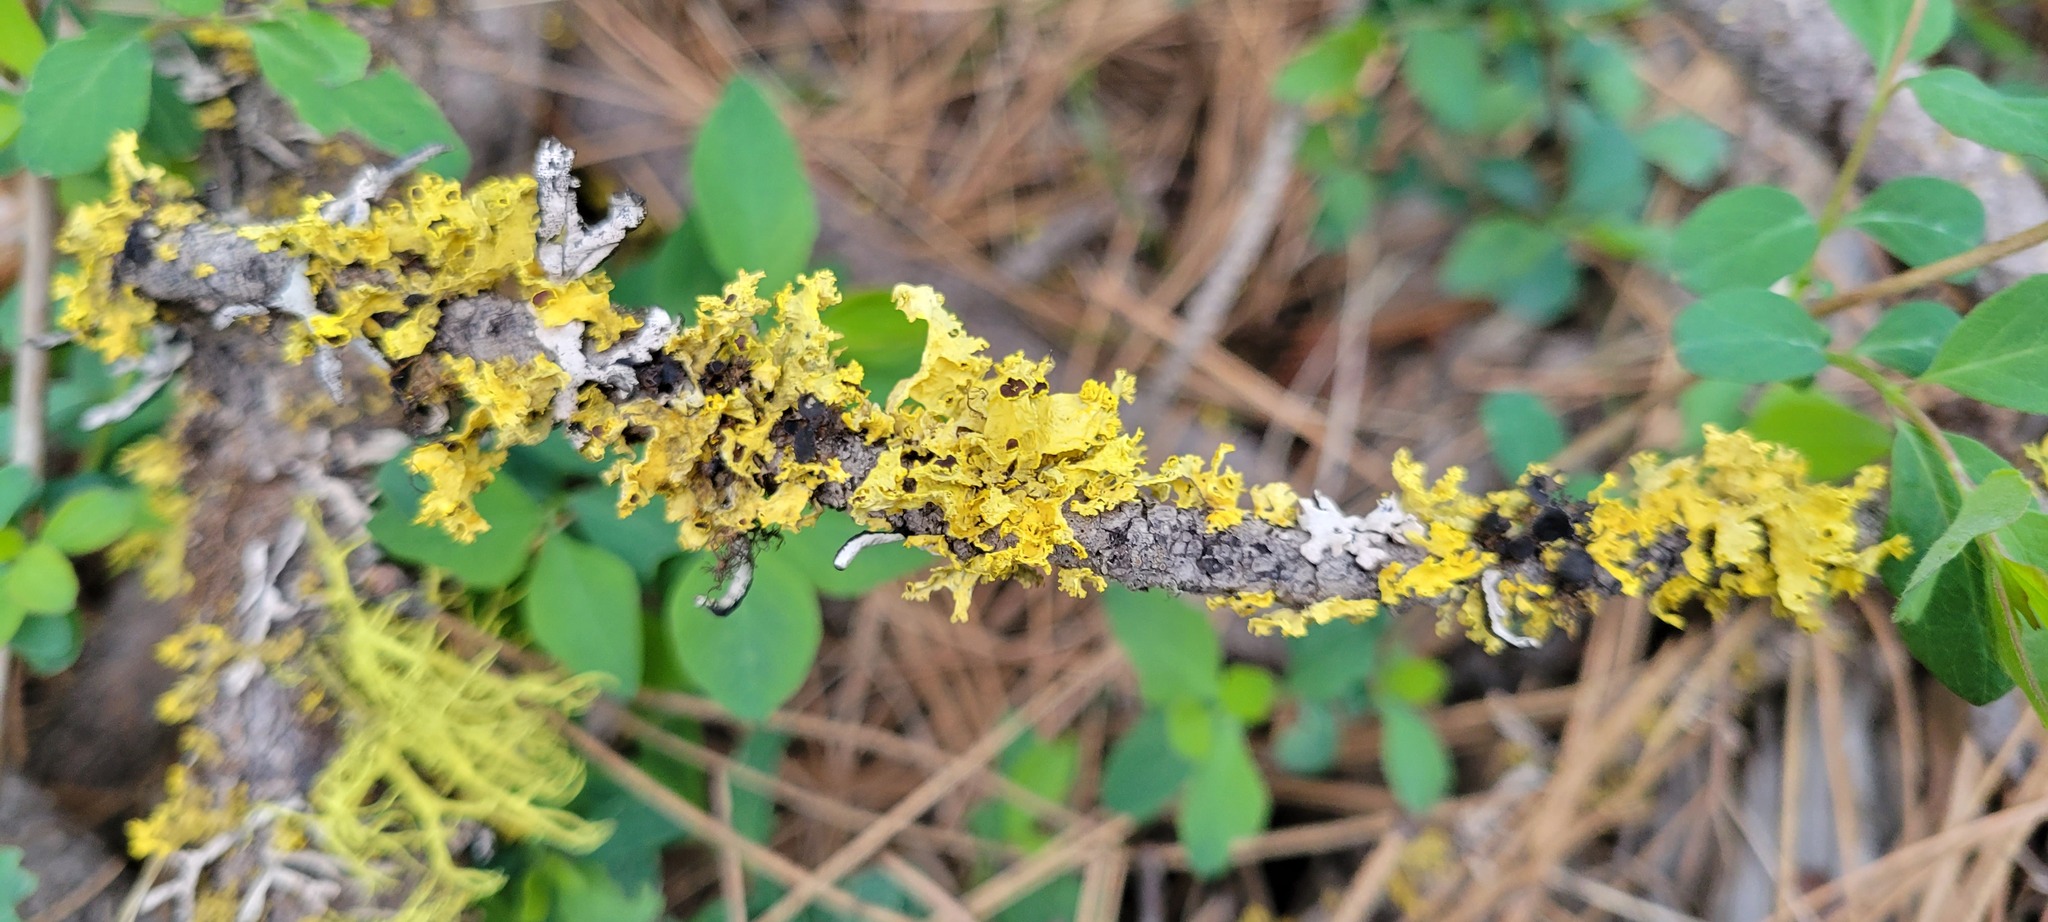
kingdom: Fungi
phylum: Ascomycota
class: Lecanoromycetes
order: Lecanorales
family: Parmeliaceae
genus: Vulpicida
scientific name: Vulpicida canadensis
